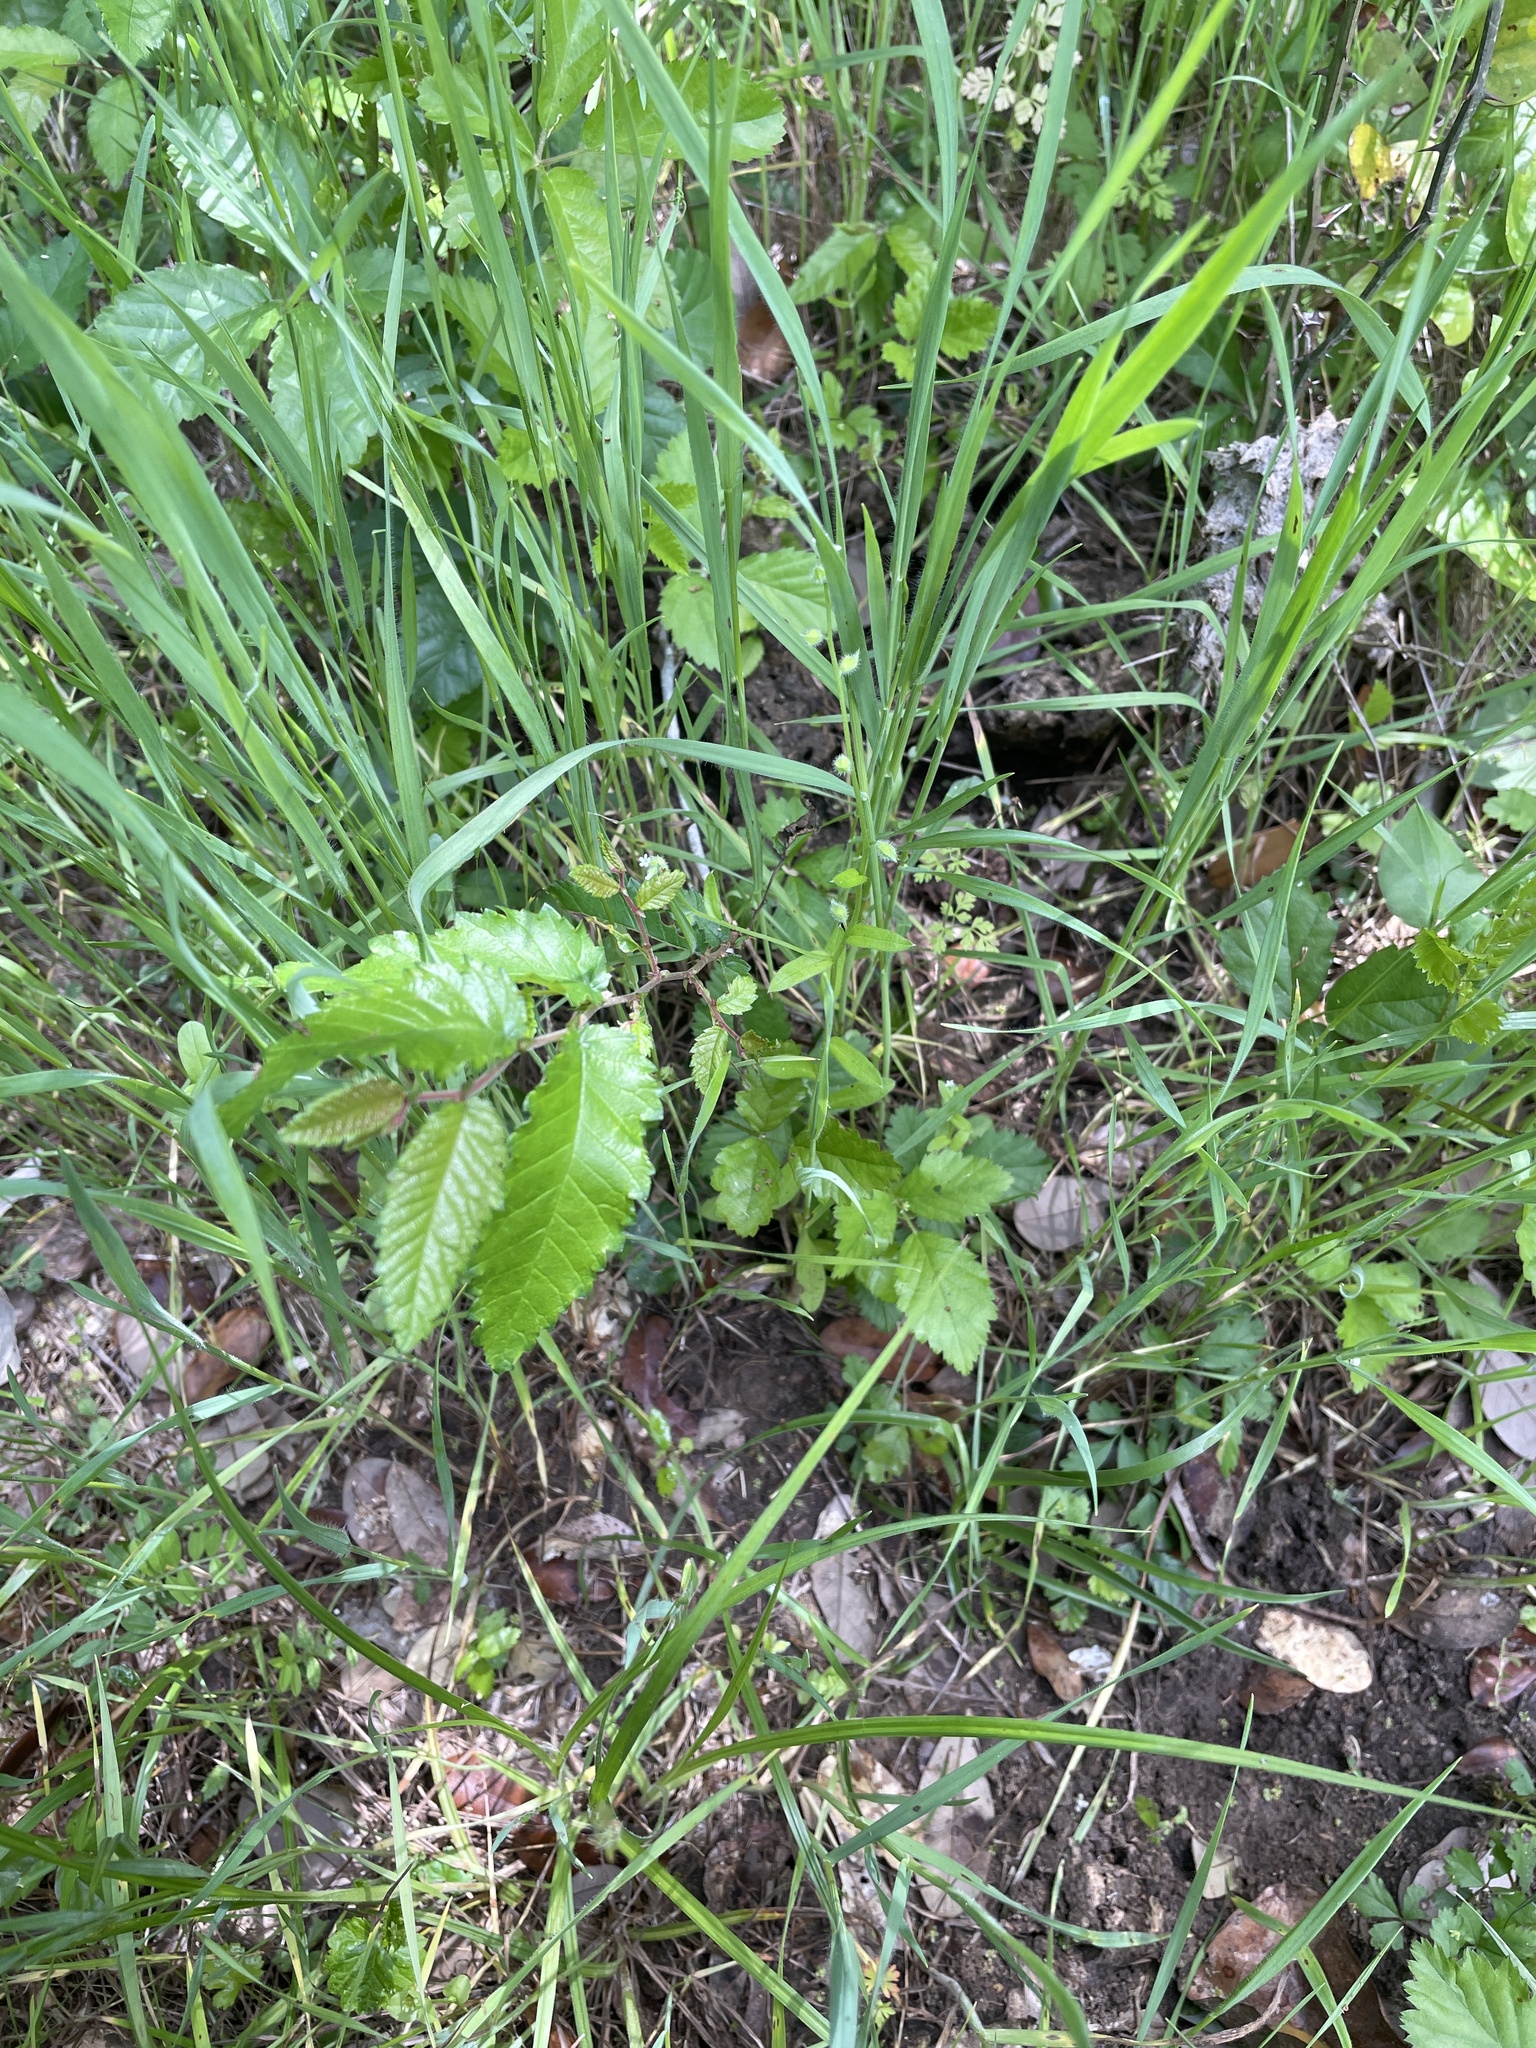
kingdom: Plantae
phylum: Tracheophyta
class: Magnoliopsida
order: Boraginales
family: Boraginaceae
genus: Myosotis
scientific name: Myosotis macrosperma
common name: Large-seed forget-me-not
